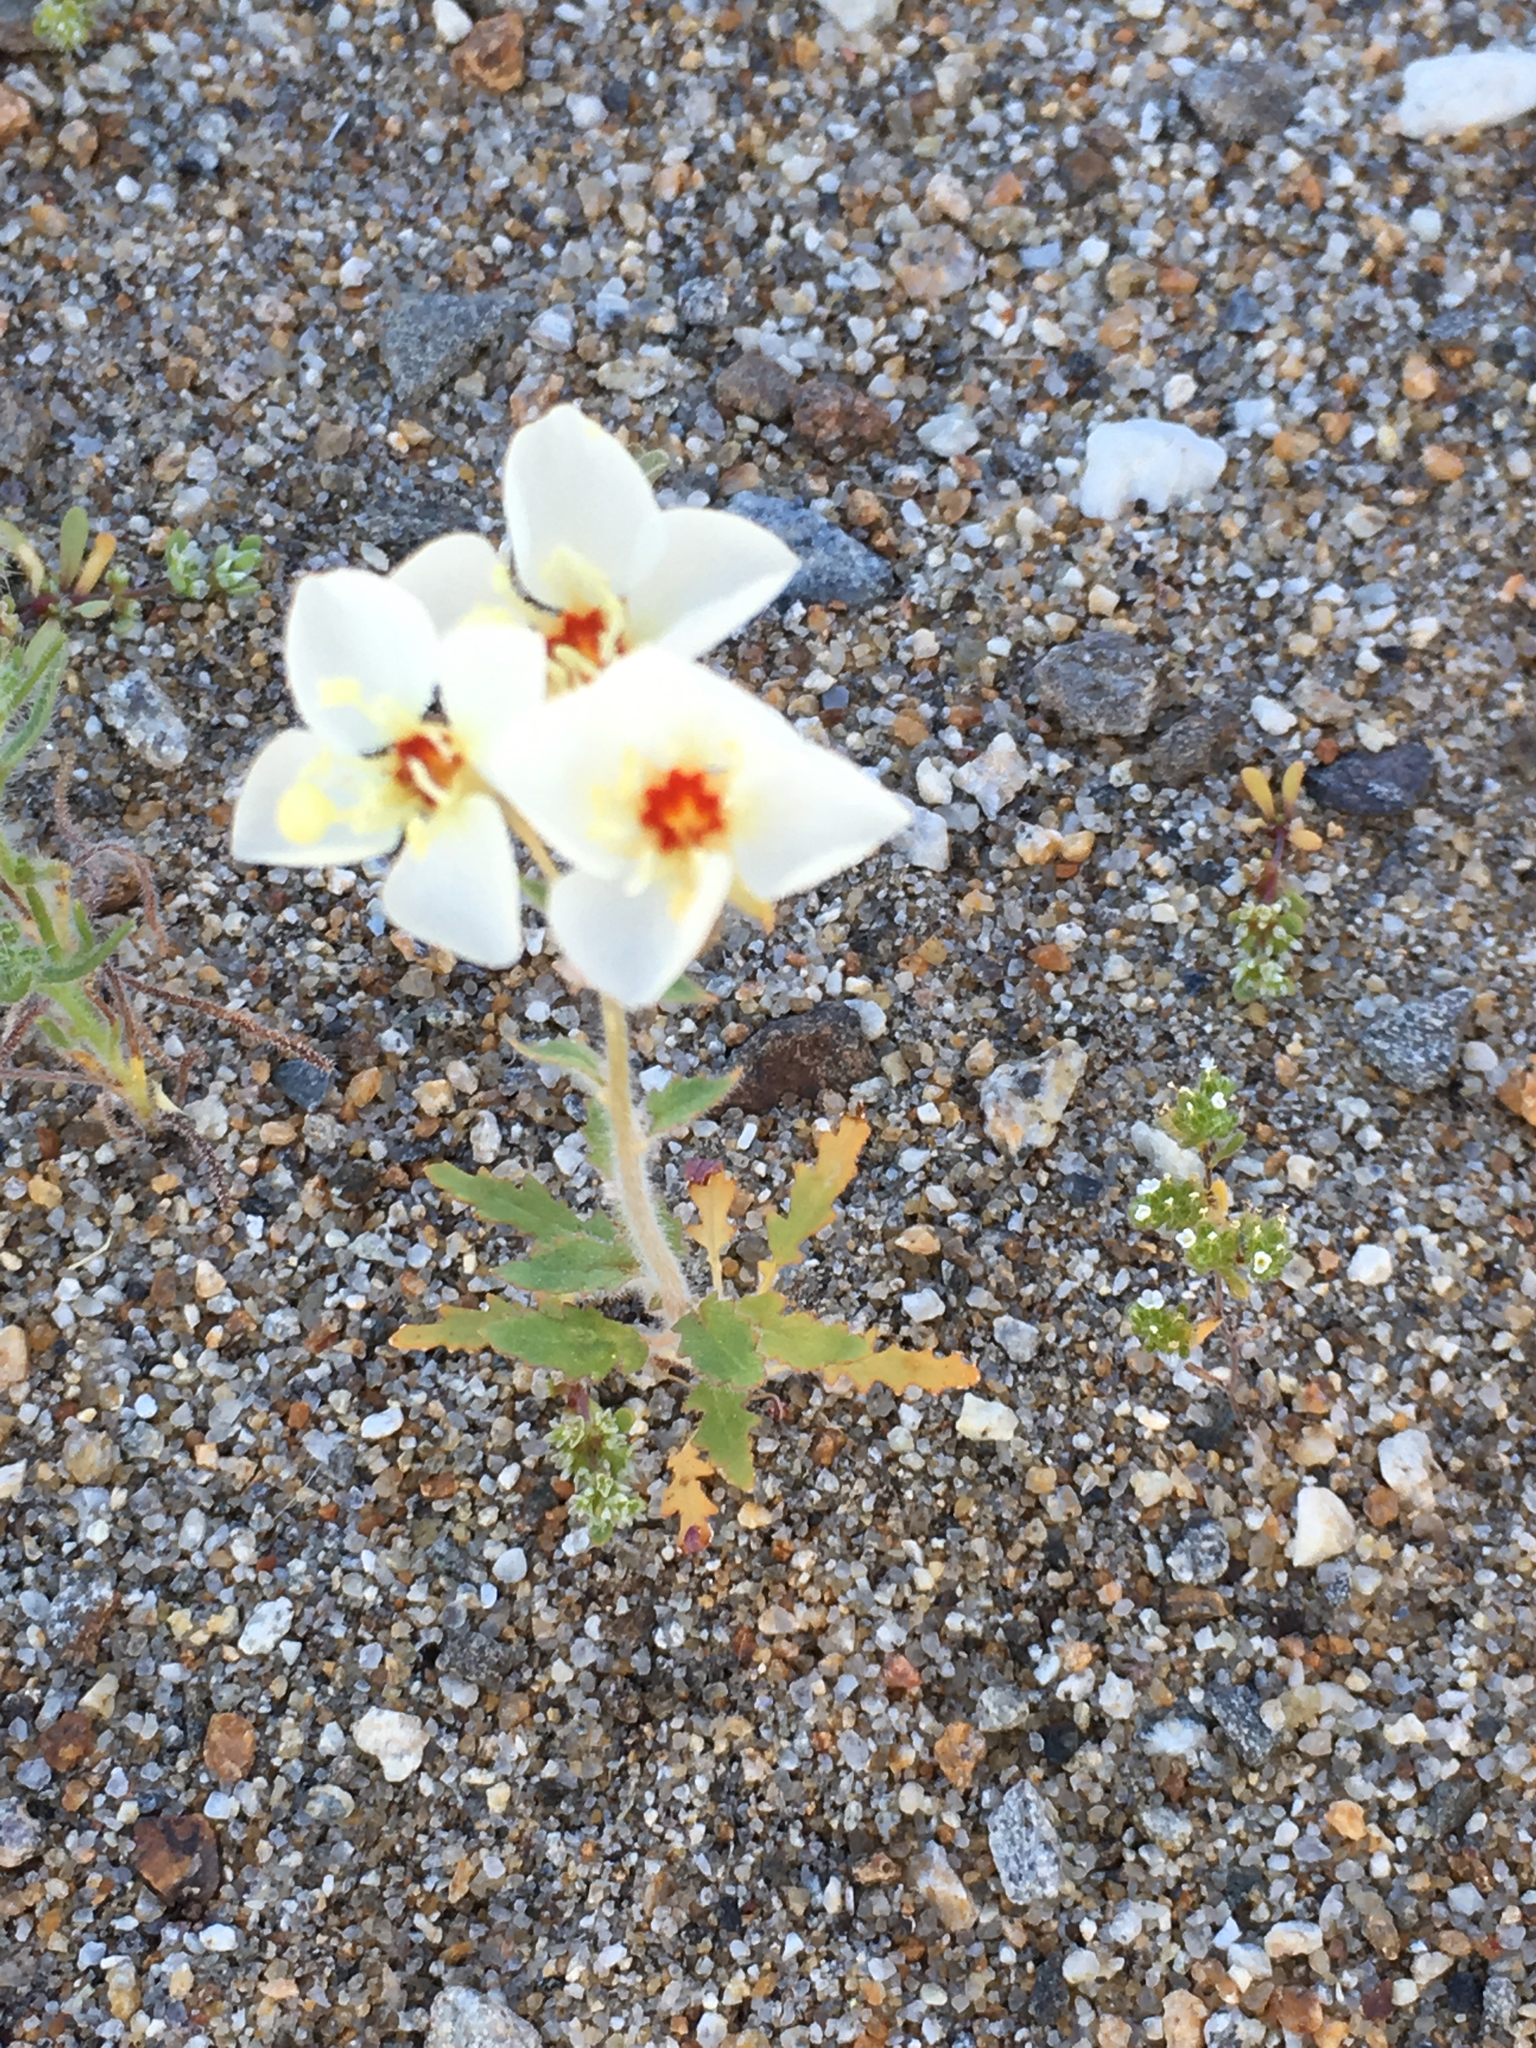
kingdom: Plantae
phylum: Tracheophyta
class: Magnoliopsida
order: Myrtales
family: Onagraceae
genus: Chylismia
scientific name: Chylismia claviformis
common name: Browneyes
